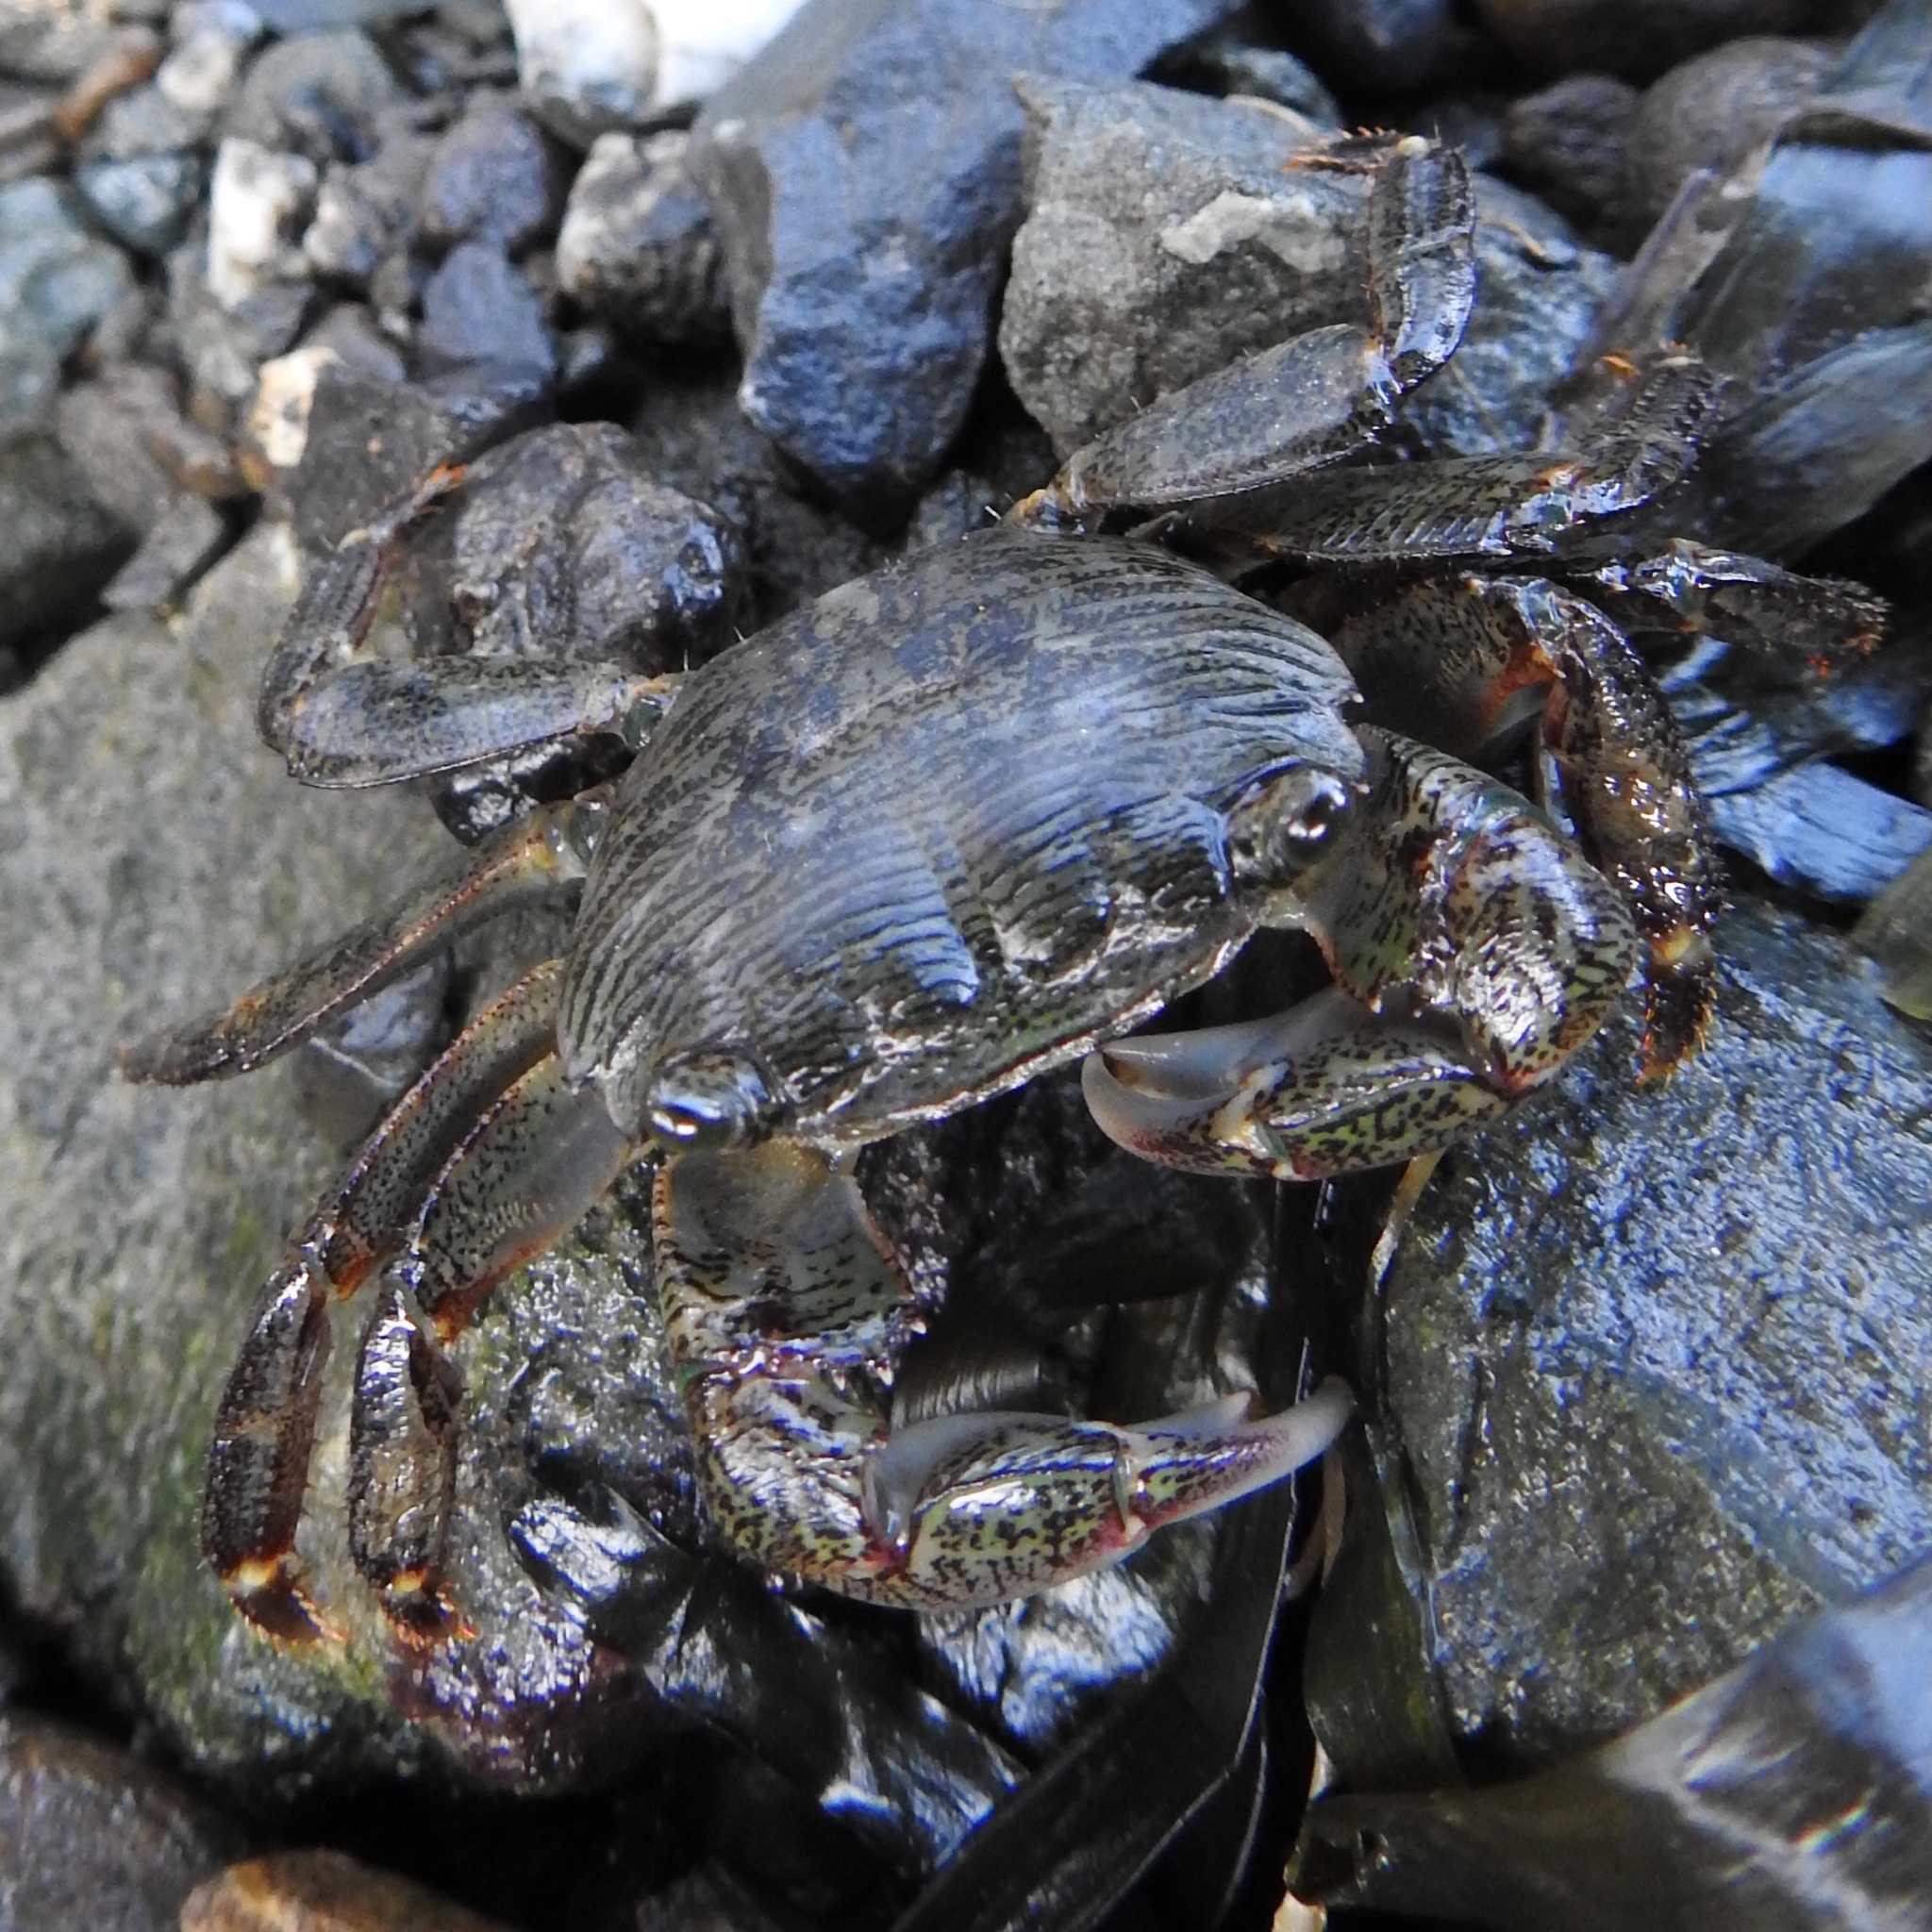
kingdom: Animalia
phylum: Arthropoda
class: Malacostraca
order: Decapoda
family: Grapsidae
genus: Pachygrapsus
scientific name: Pachygrapsus crassipes
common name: Striped shore crab
